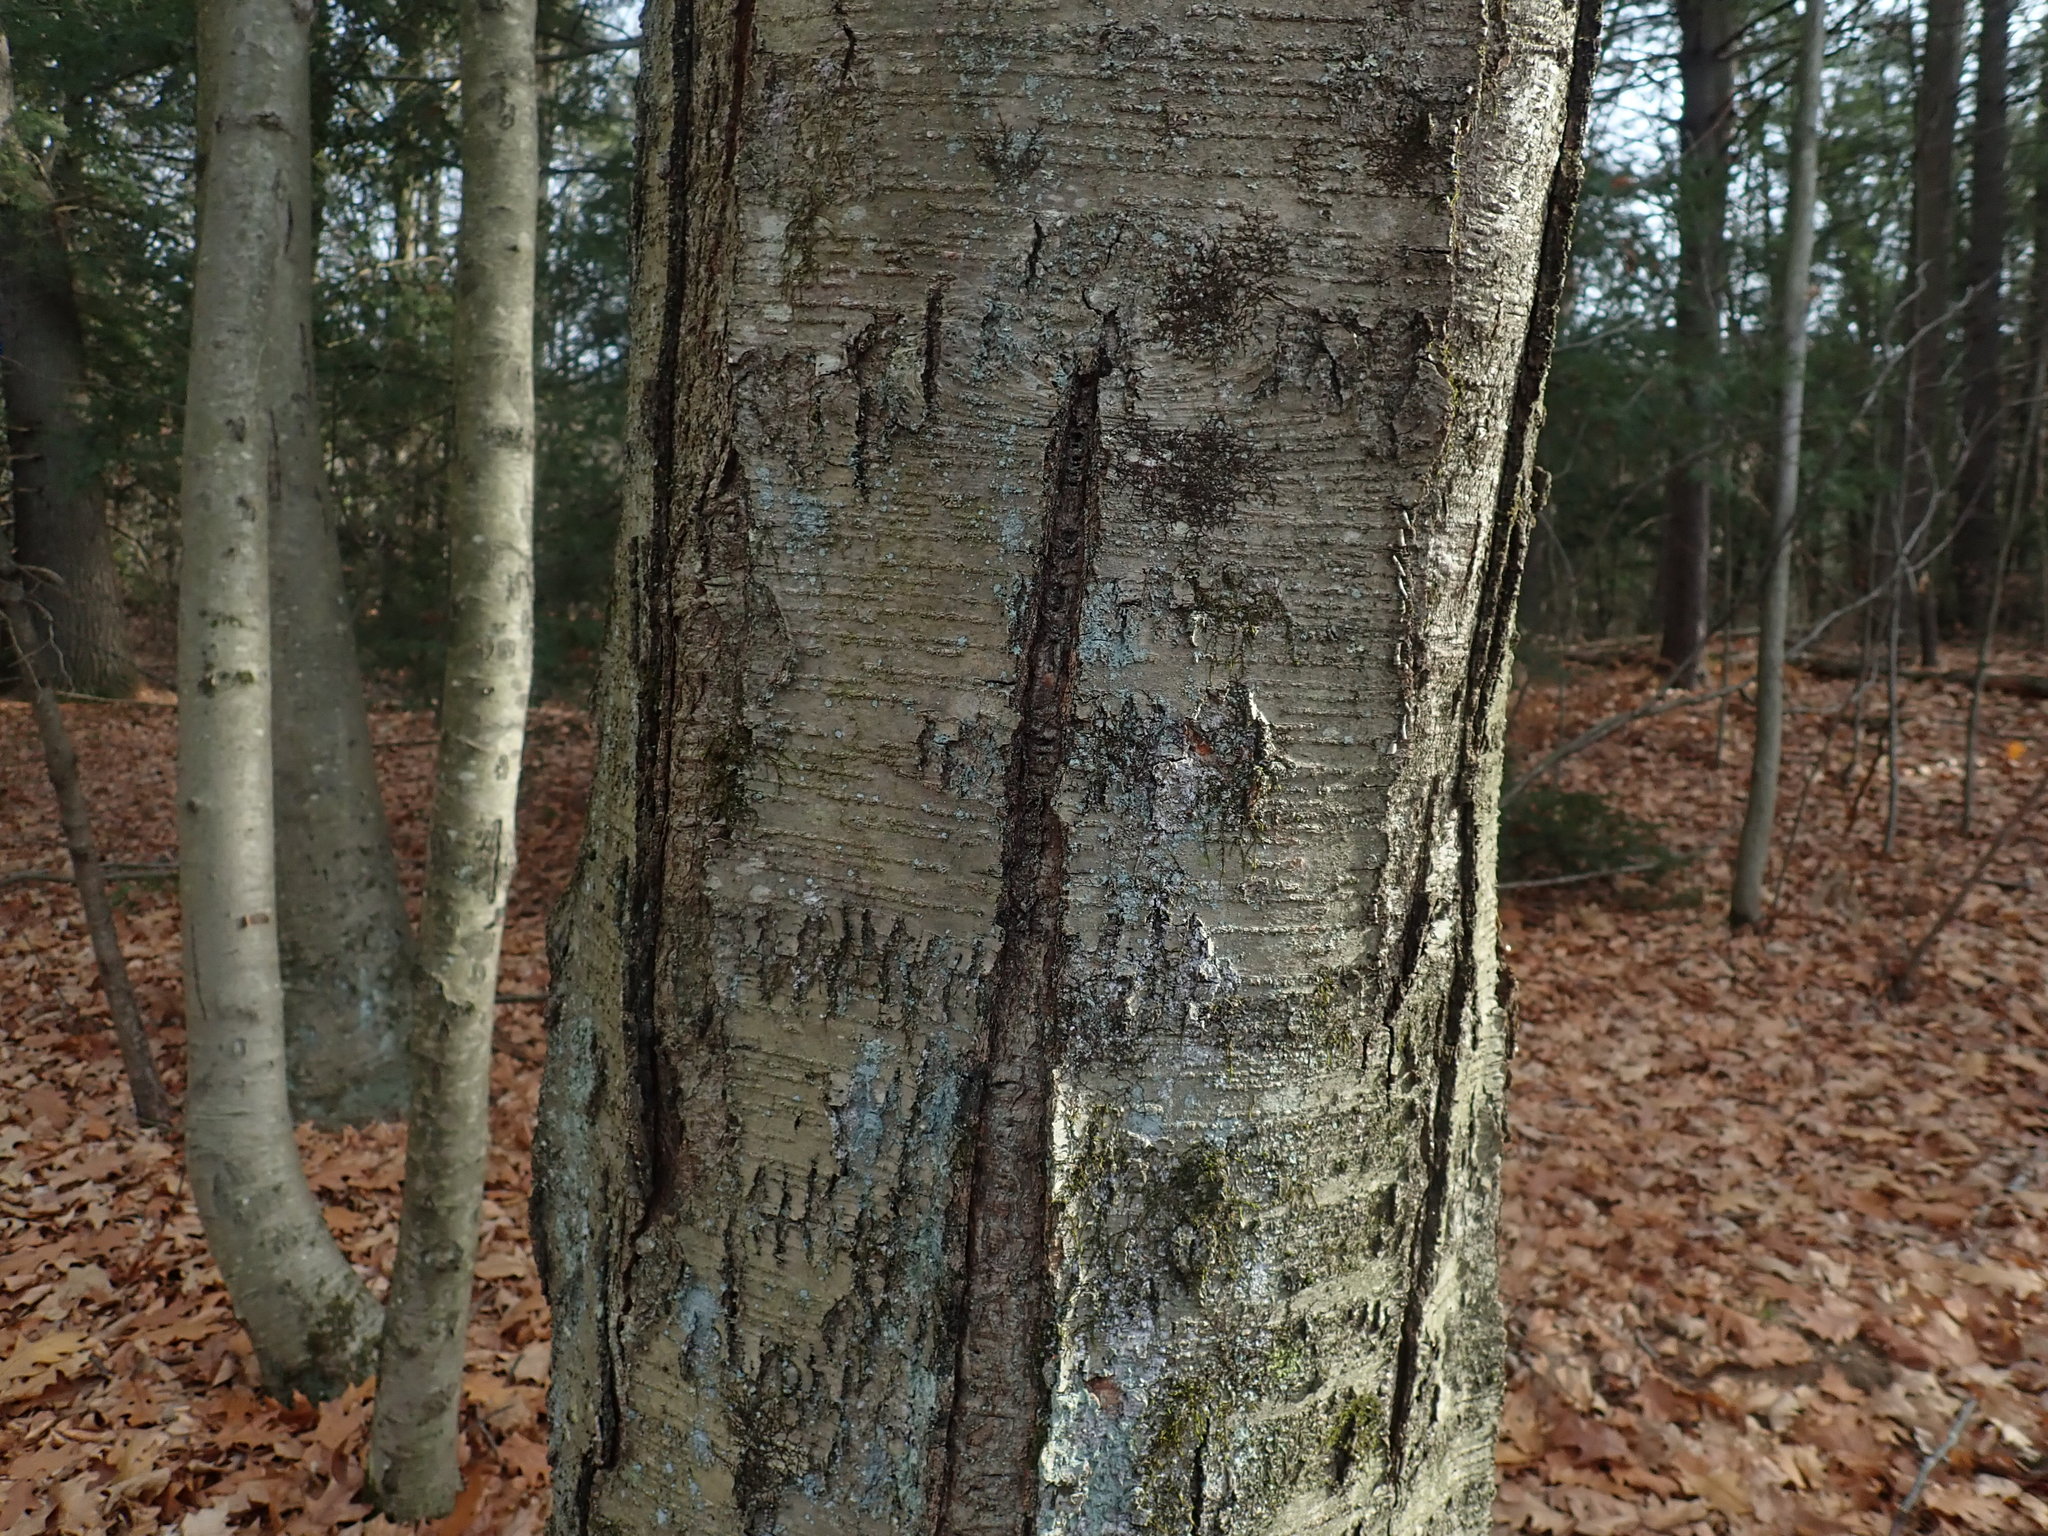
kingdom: Plantae
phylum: Tracheophyta
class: Magnoliopsida
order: Fagales
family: Betulaceae
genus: Betula
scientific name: Betula lenta
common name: Black birch
